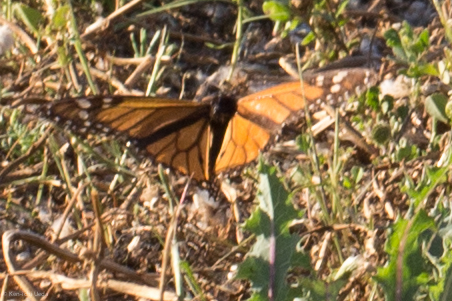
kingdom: Animalia
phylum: Arthropoda
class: Insecta
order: Lepidoptera
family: Nymphalidae
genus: Danaus
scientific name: Danaus plexippus
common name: Monarch
